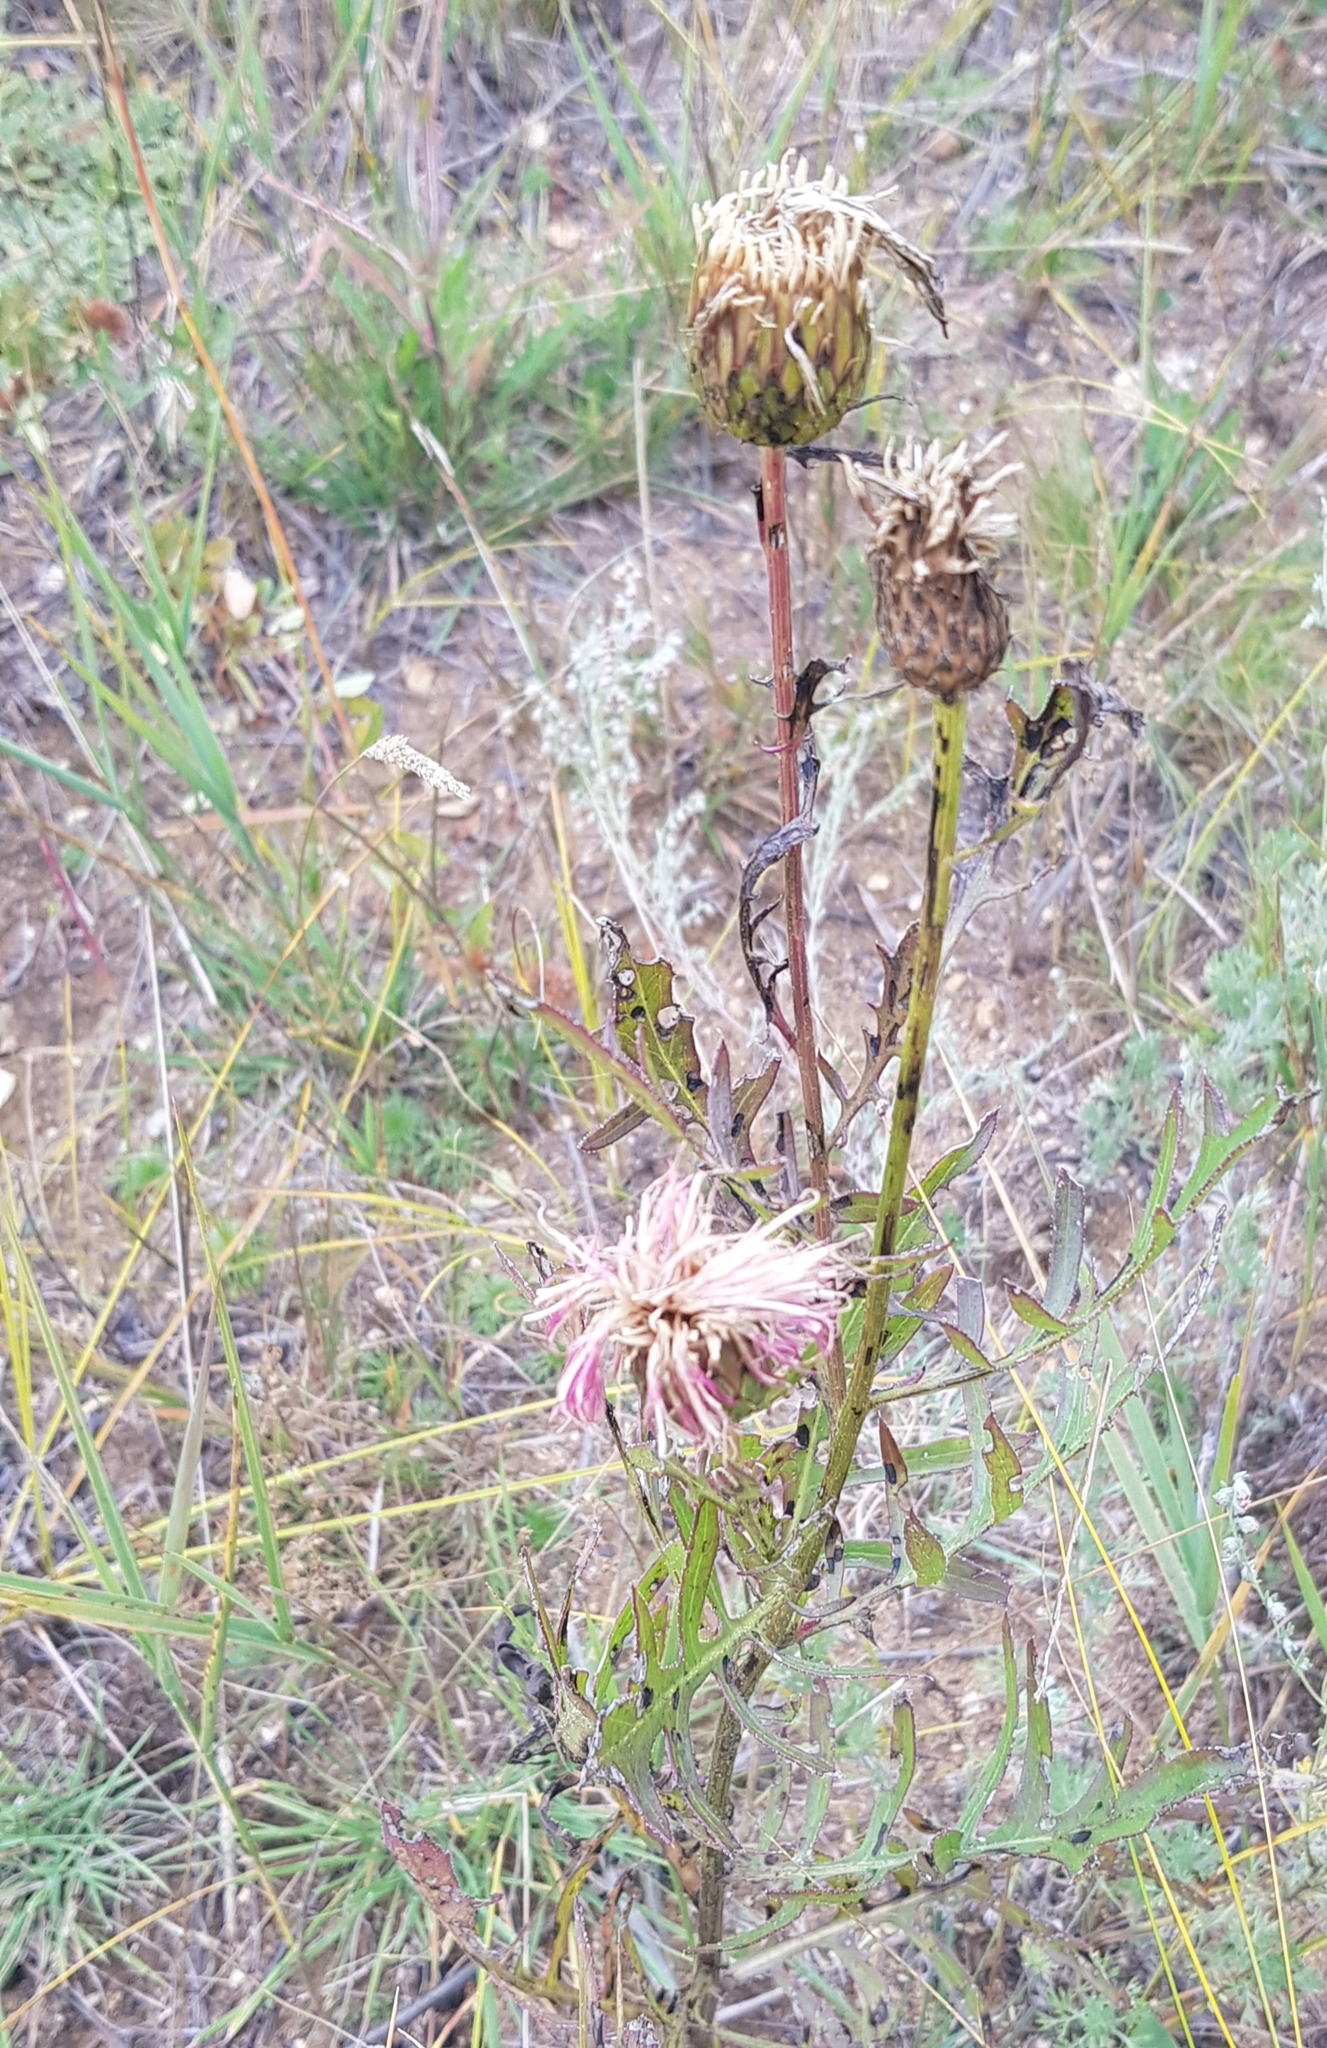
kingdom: Plantae
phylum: Tracheophyta
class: Magnoliopsida
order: Asterales
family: Asteraceae
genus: Klasea
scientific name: Klasea centauroides
